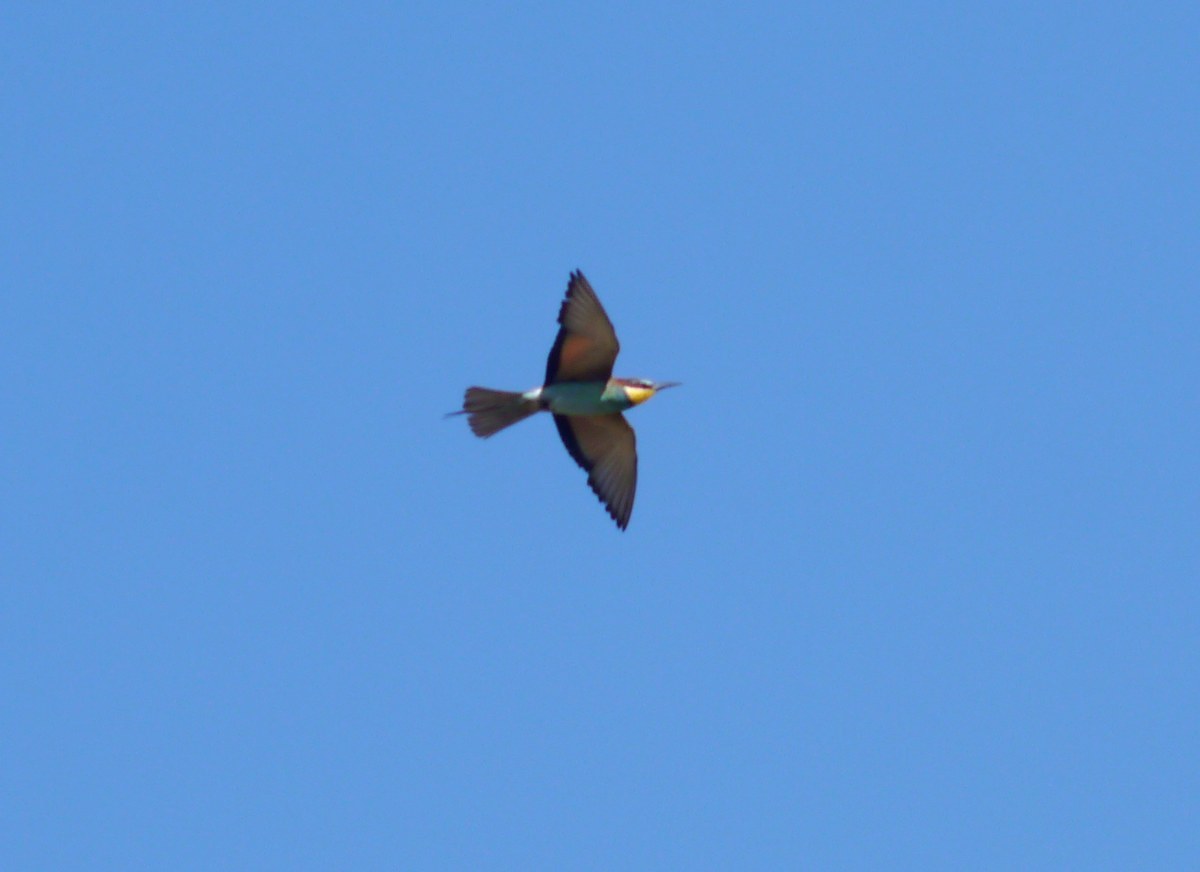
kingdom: Animalia
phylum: Chordata
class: Aves
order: Coraciiformes
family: Meropidae
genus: Merops
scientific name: Merops apiaster
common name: European bee-eater
